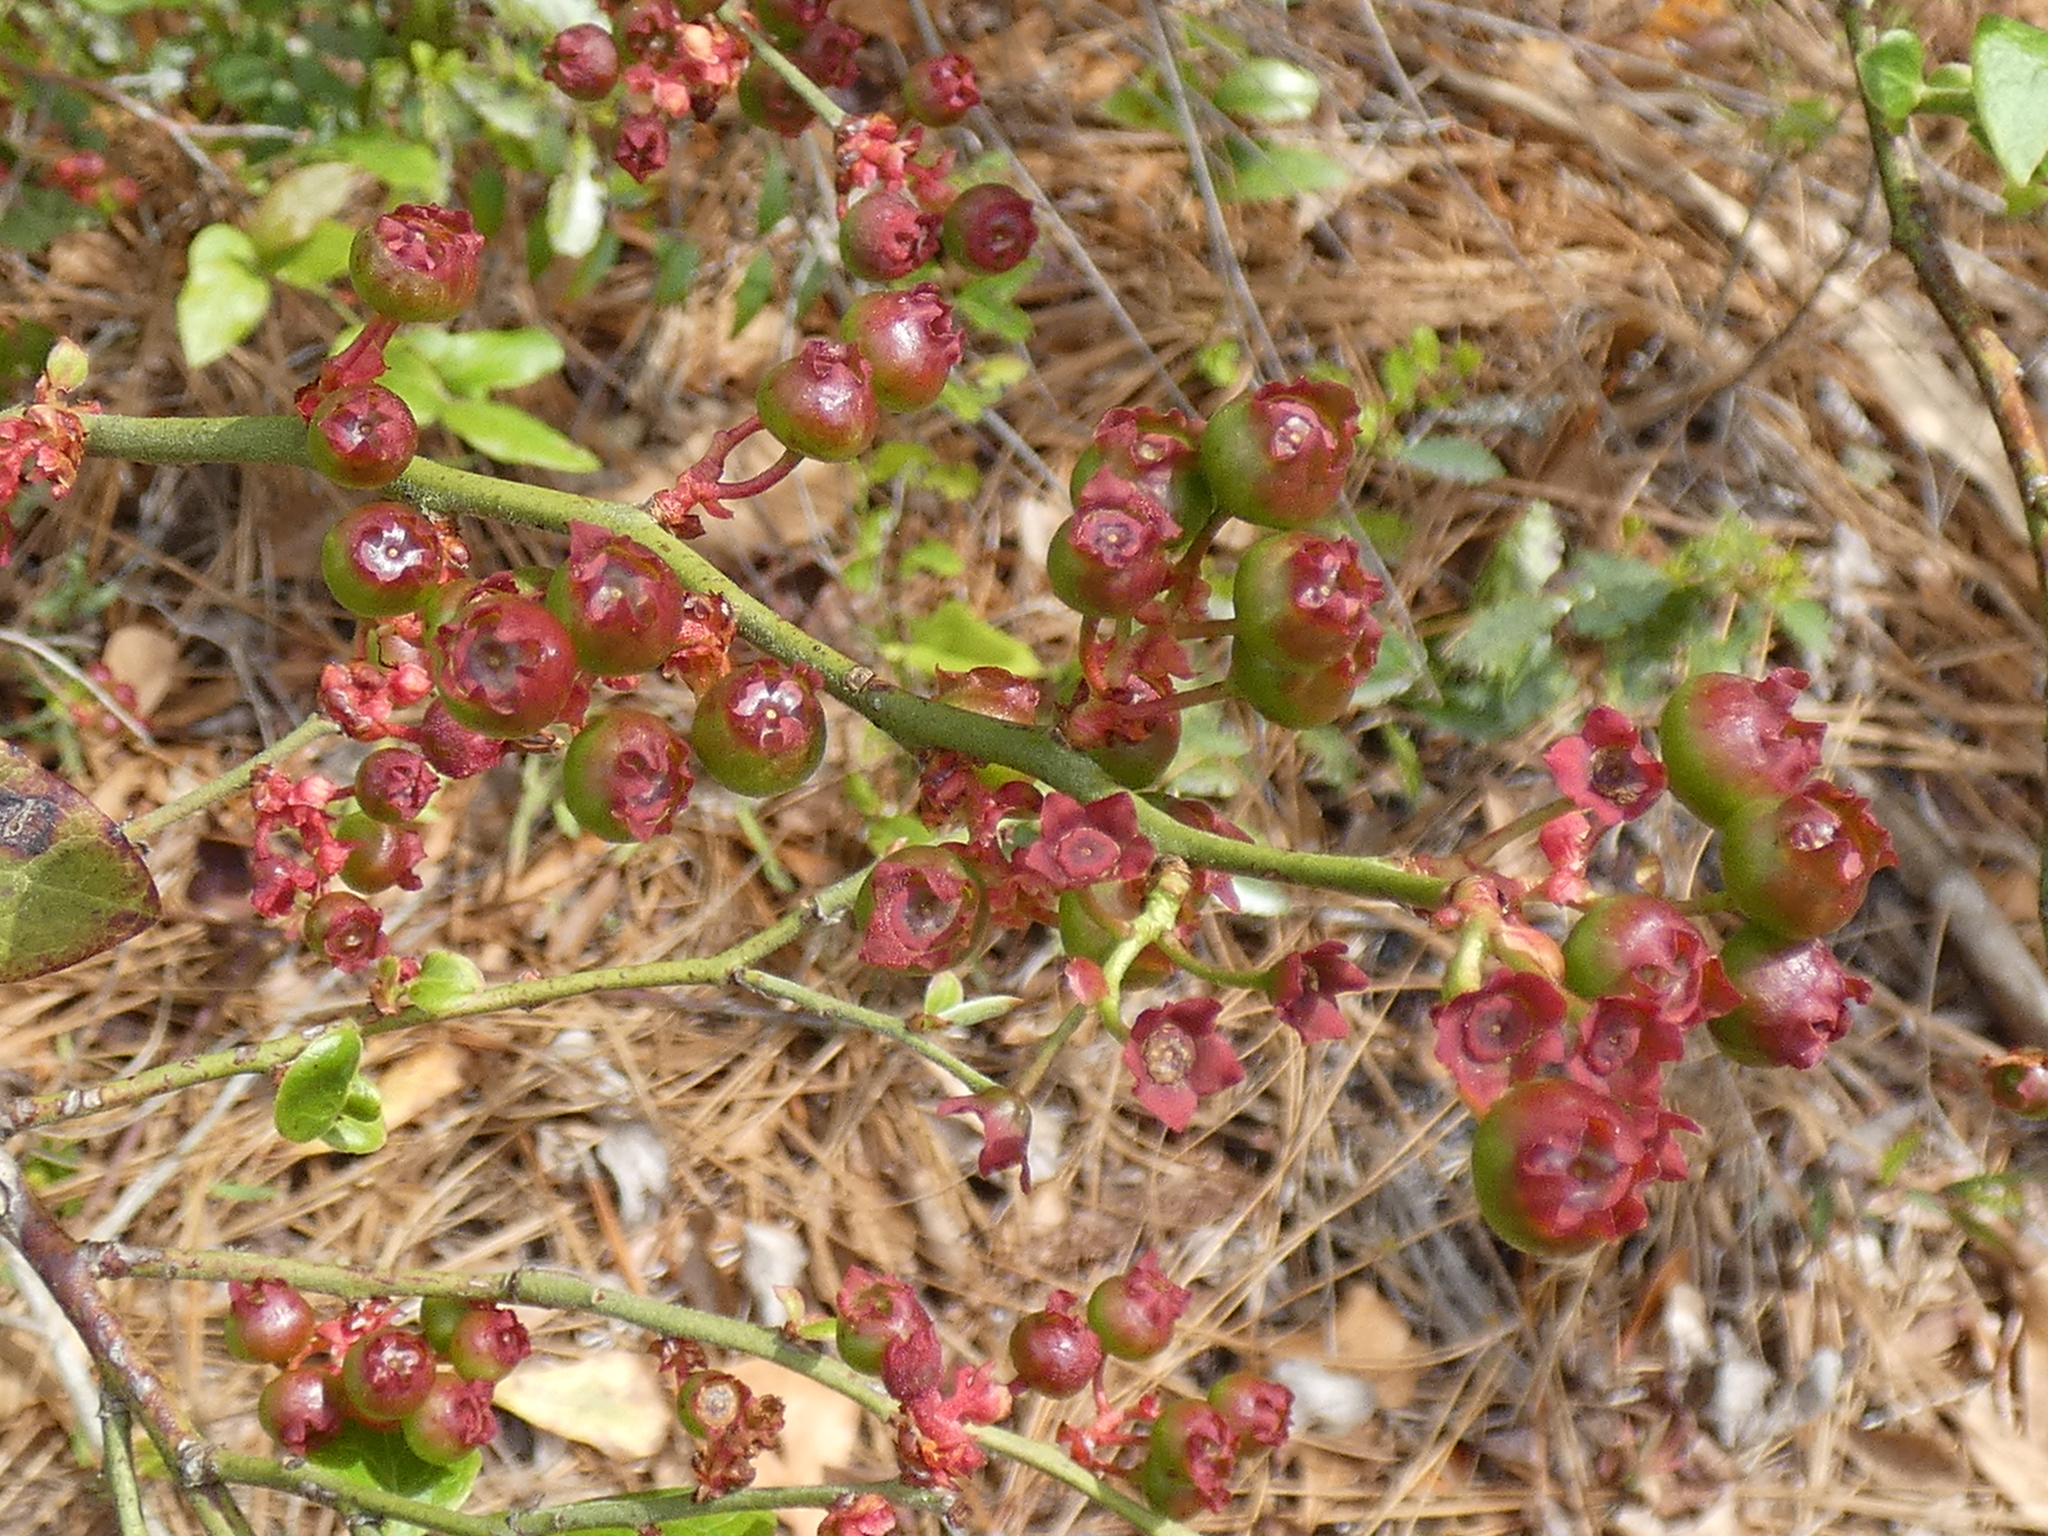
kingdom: Plantae
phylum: Tracheophyta
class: Magnoliopsida
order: Ericales
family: Ericaceae
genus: Vaccinium
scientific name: Vaccinium corymbosum
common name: Blueberry
